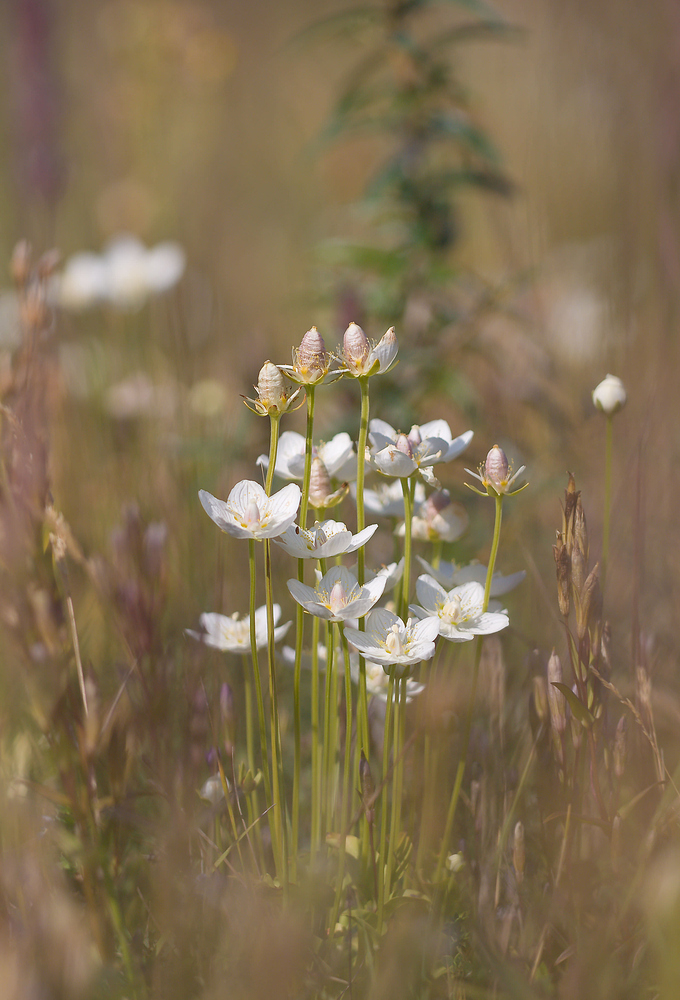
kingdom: Plantae
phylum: Tracheophyta
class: Magnoliopsida
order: Celastrales
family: Parnassiaceae
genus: Parnassia
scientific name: Parnassia palustris
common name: Grass-of-parnassus
